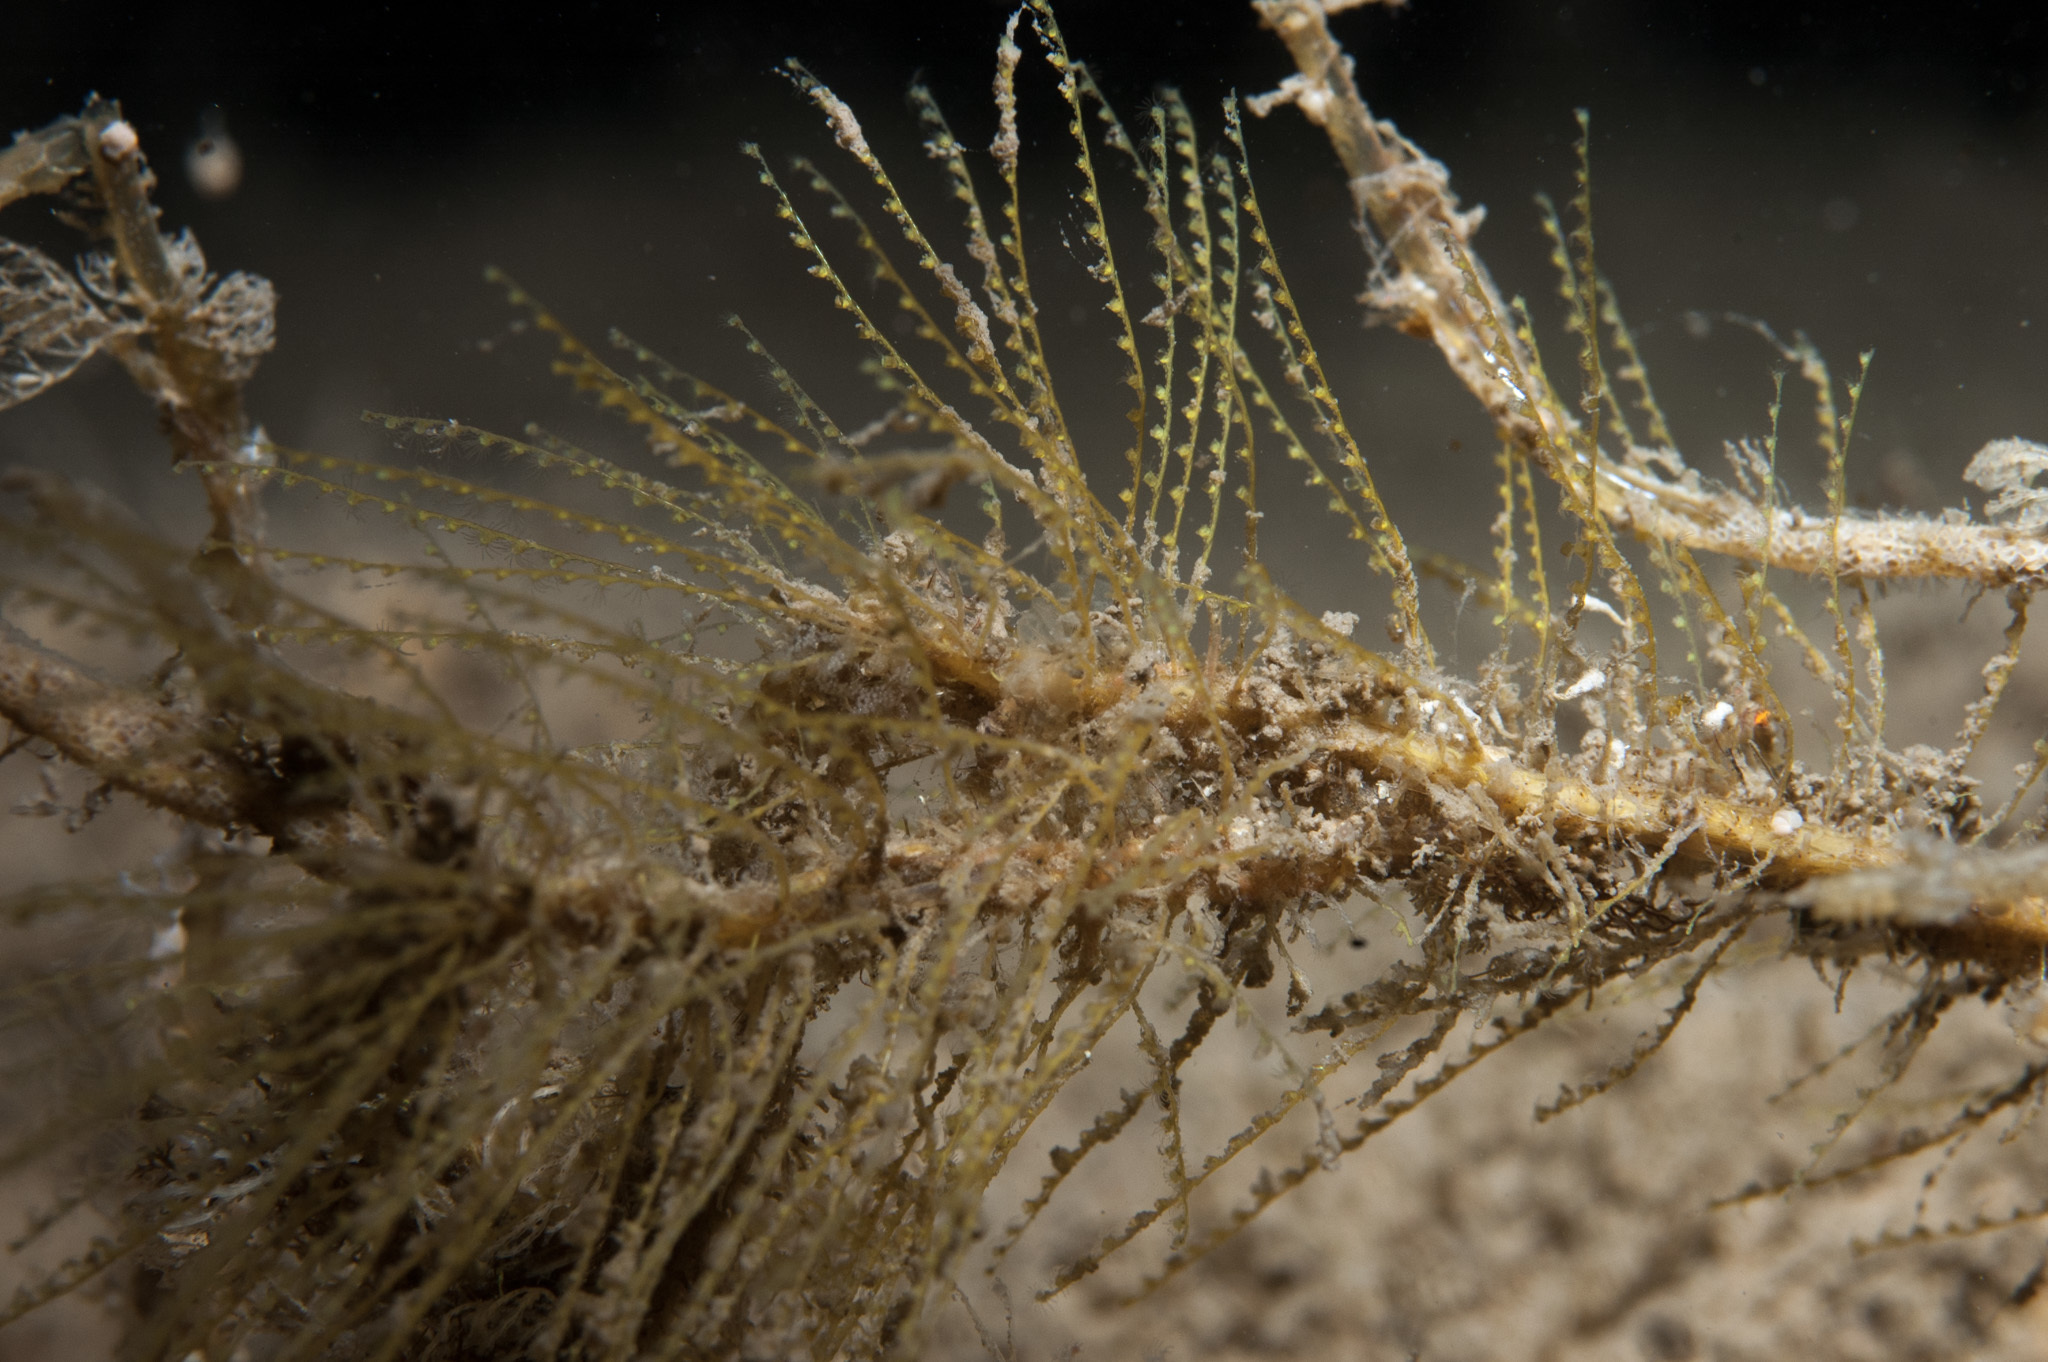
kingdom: Animalia
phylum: Cnidaria
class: Hydrozoa
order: Leptothecata
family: Halopterididae
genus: Antennella
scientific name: Antennella secundaria
